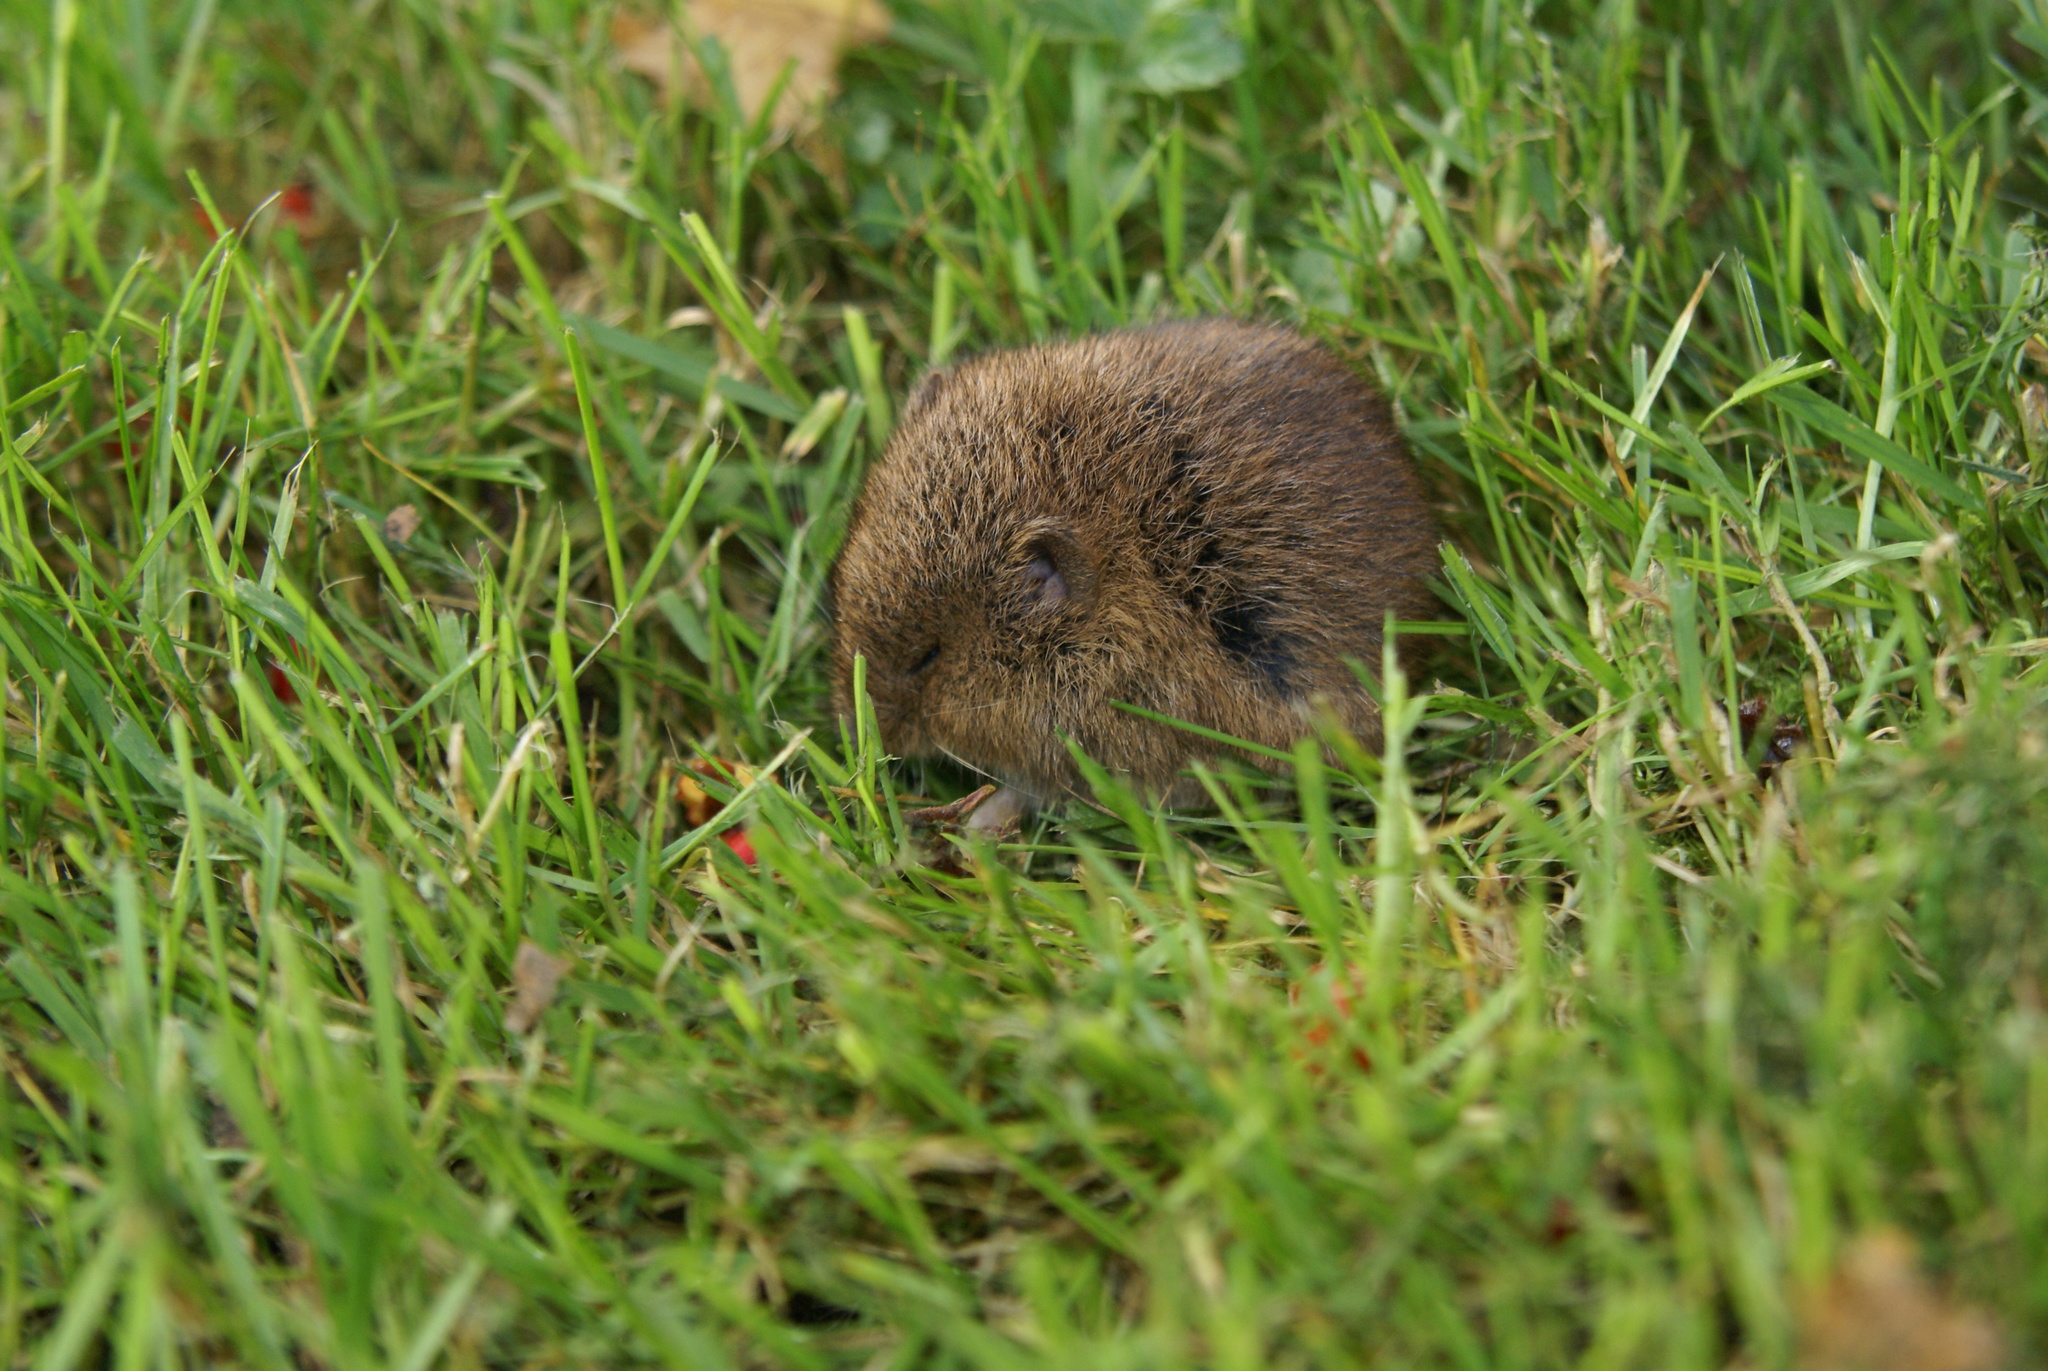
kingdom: Animalia
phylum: Chordata
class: Mammalia
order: Rodentia
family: Cricetidae
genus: Microtus
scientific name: Microtus arvalis
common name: Common vole
